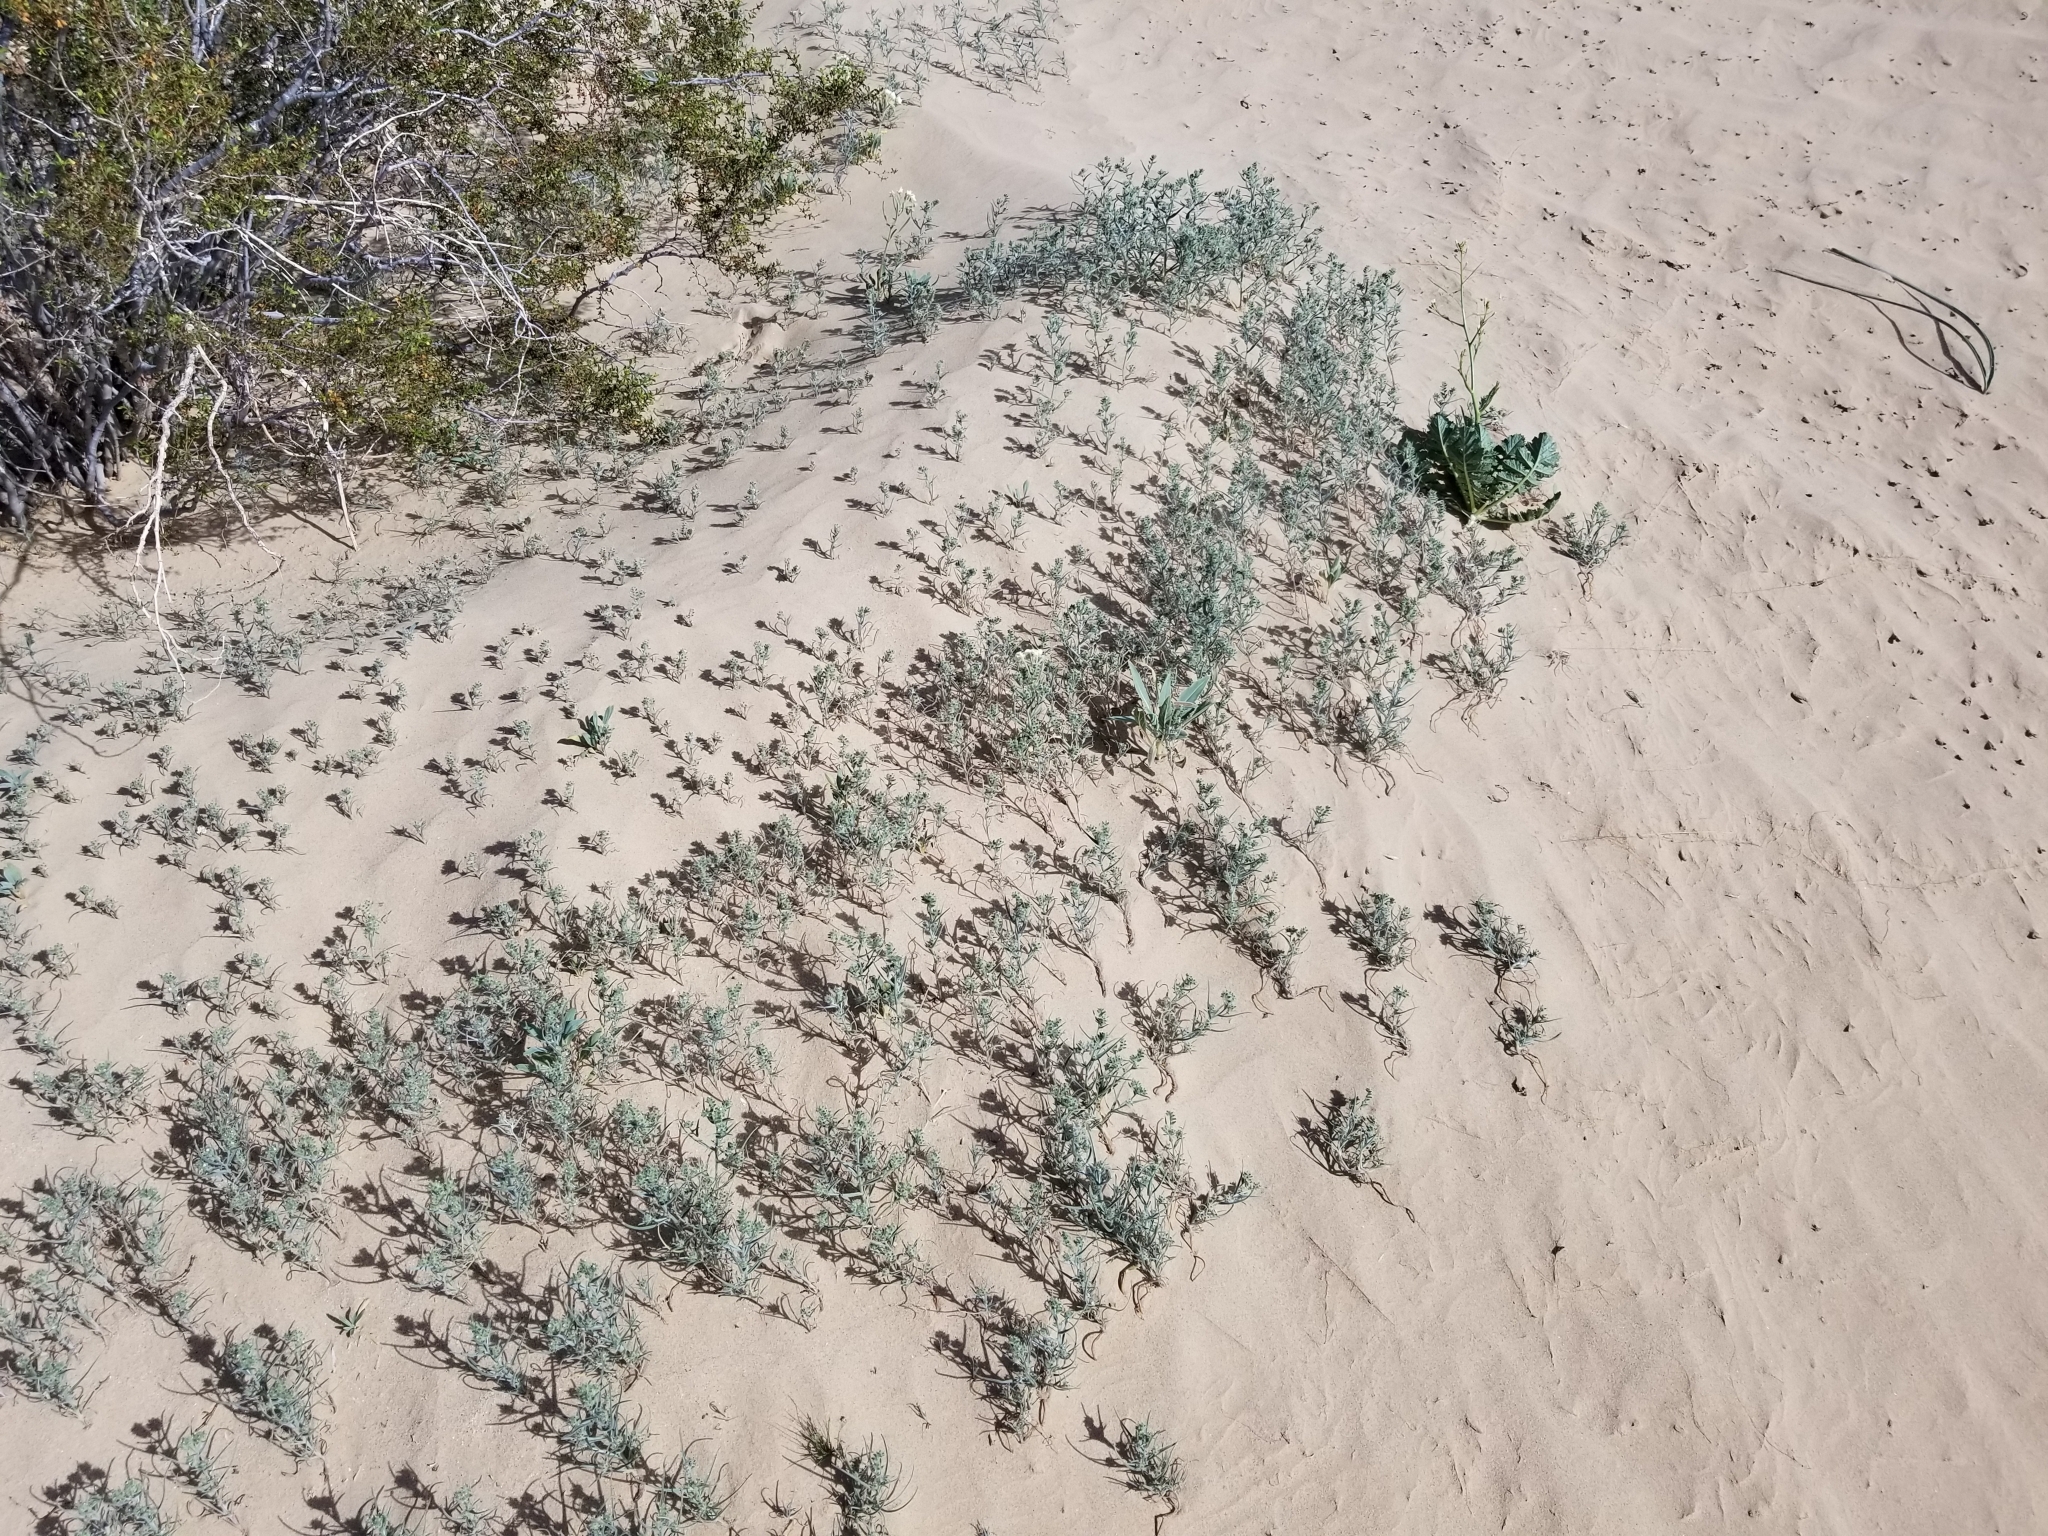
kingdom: Plantae
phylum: Tracheophyta
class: Magnoliopsida
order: Boraginales
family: Boraginaceae
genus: Johnstonella
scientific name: Johnstonella costata
